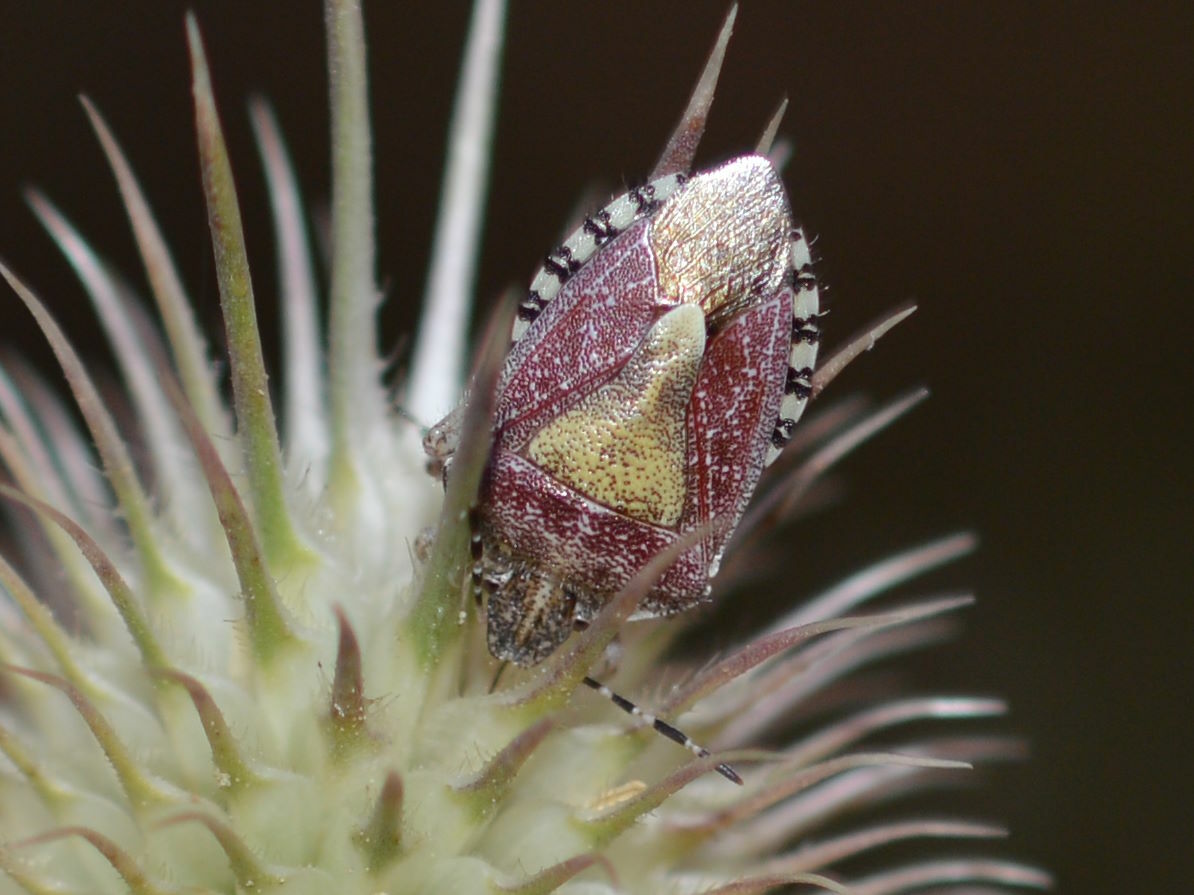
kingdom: Animalia
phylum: Arthropoda
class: Insecta
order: Hemiptera
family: Pentatomidae
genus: Dolycoris
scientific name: Dolycoris baccarum
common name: Sloe bug
